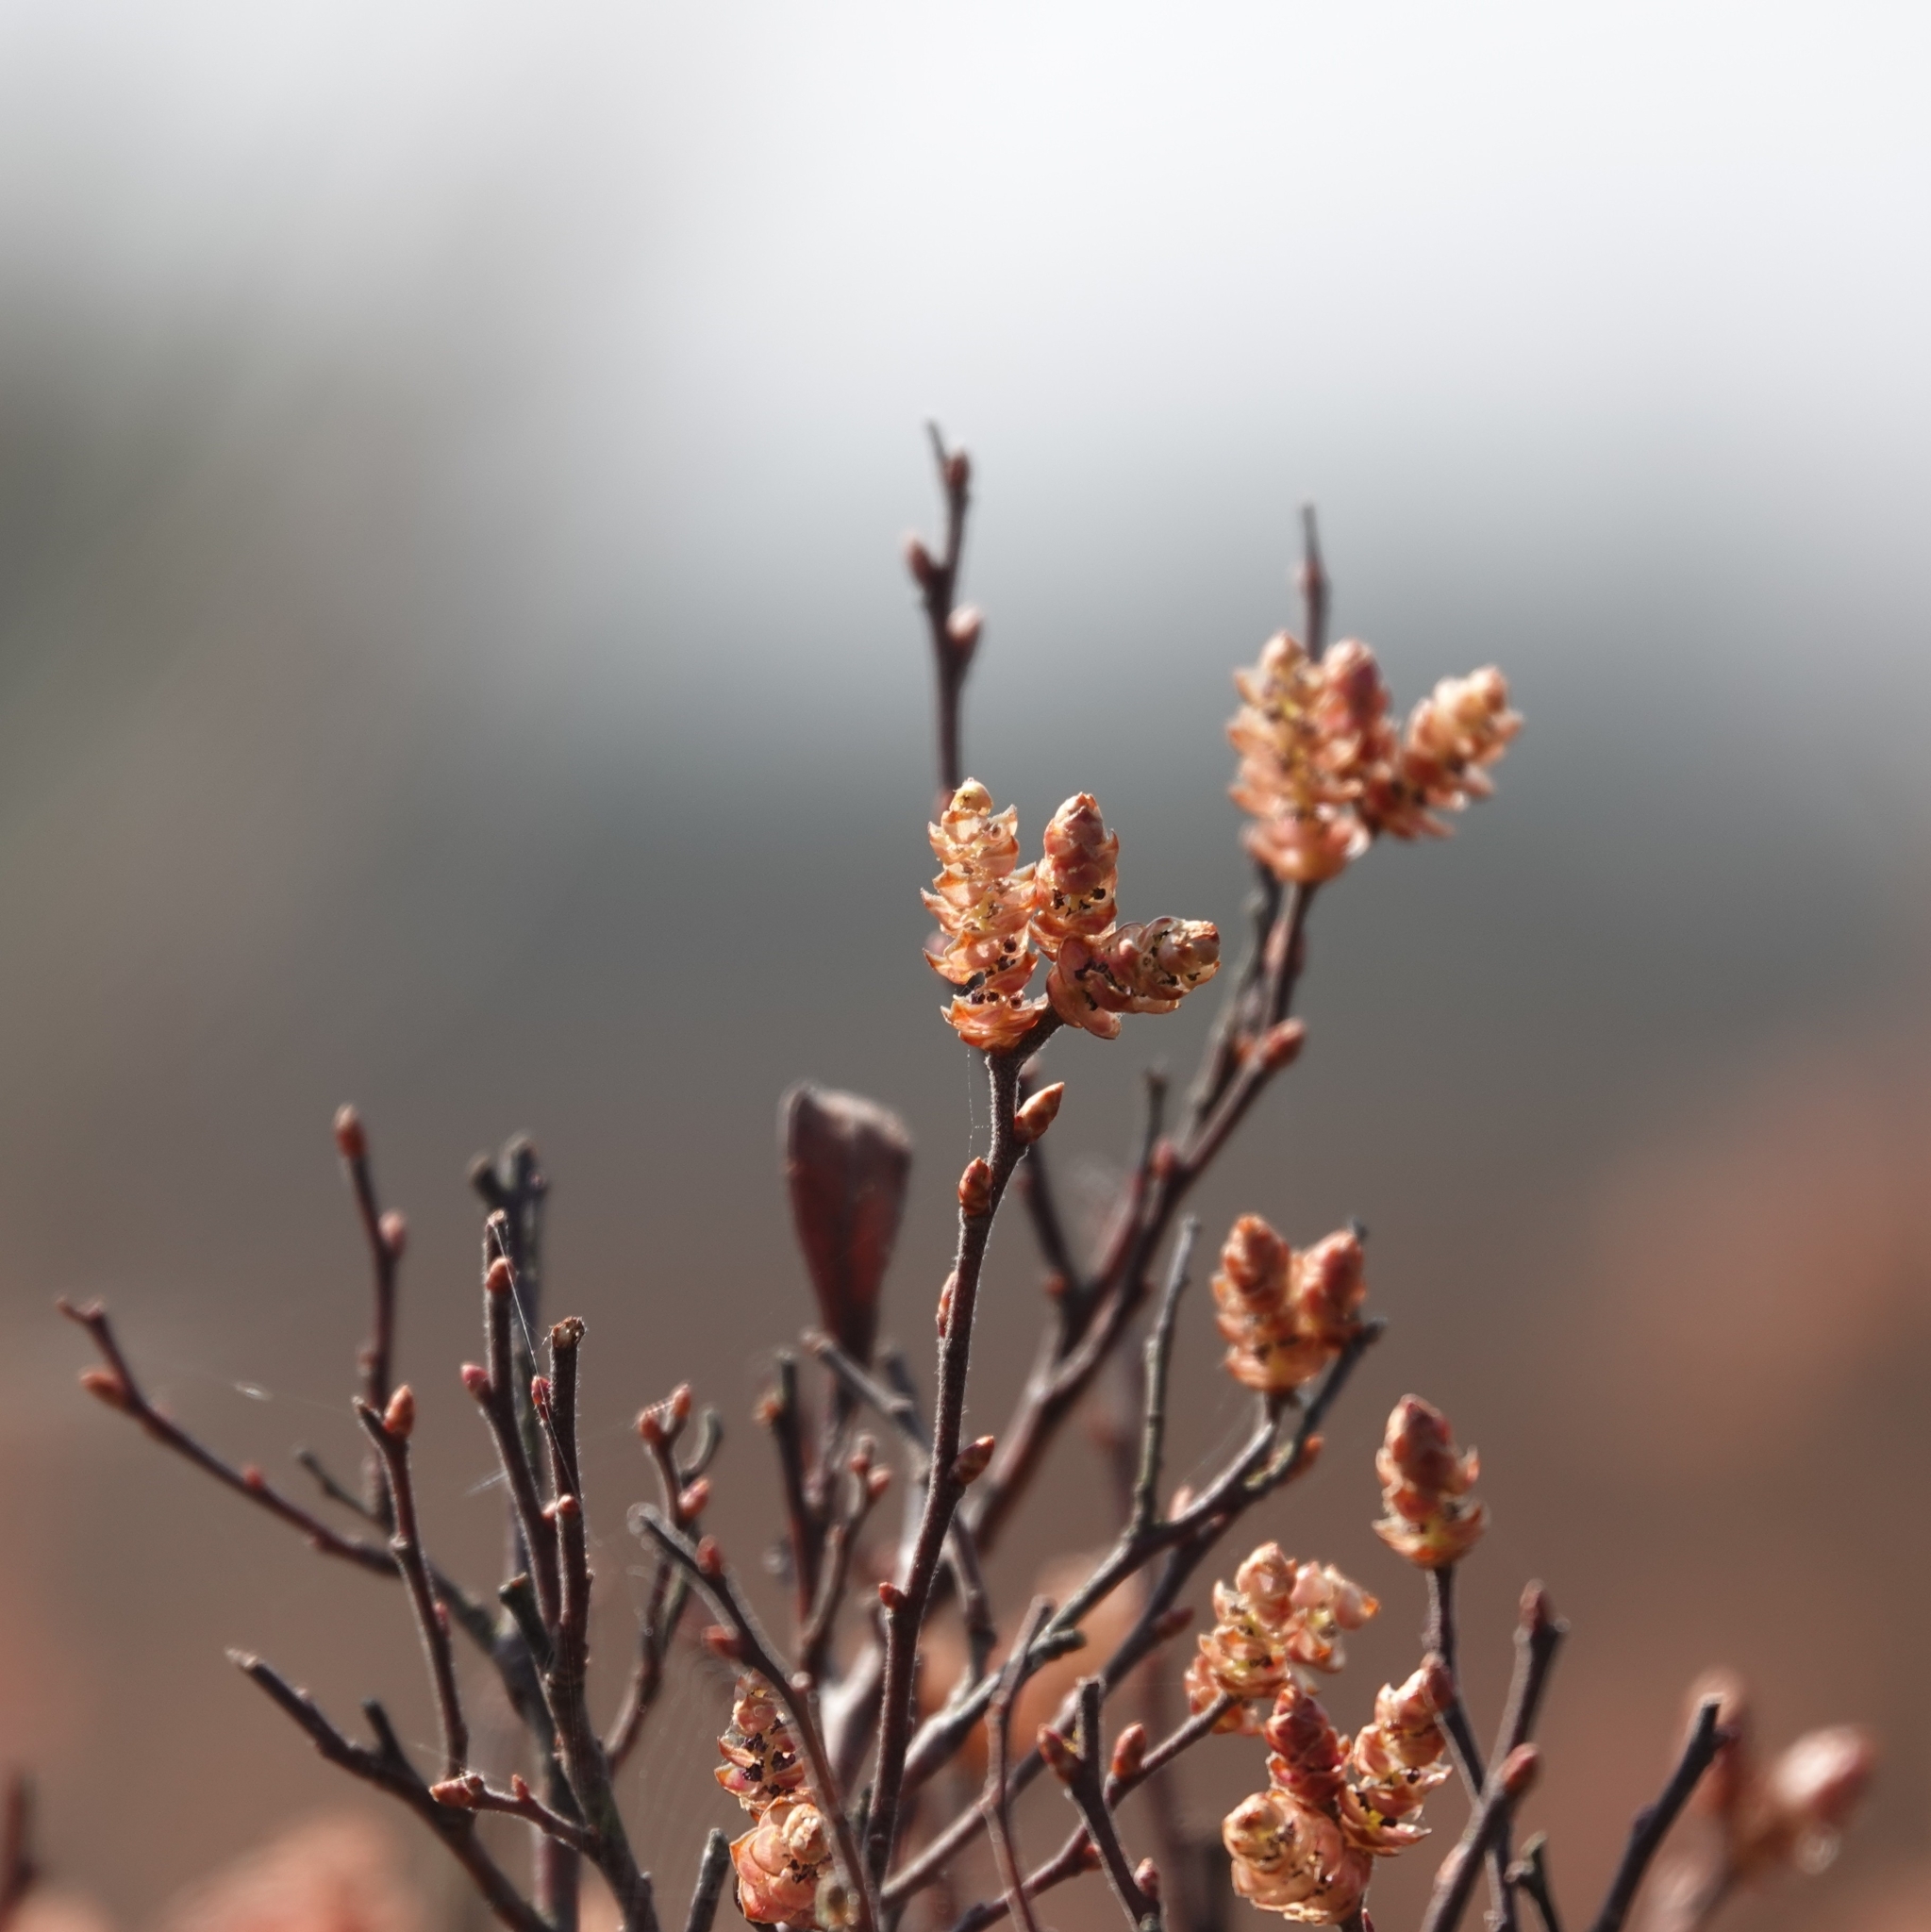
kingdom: Plantae
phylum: Tracheophyta
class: Magnoliopsida
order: Fagales
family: Myricaceae
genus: Myrica
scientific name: Myrica gale
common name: Sweet gale
